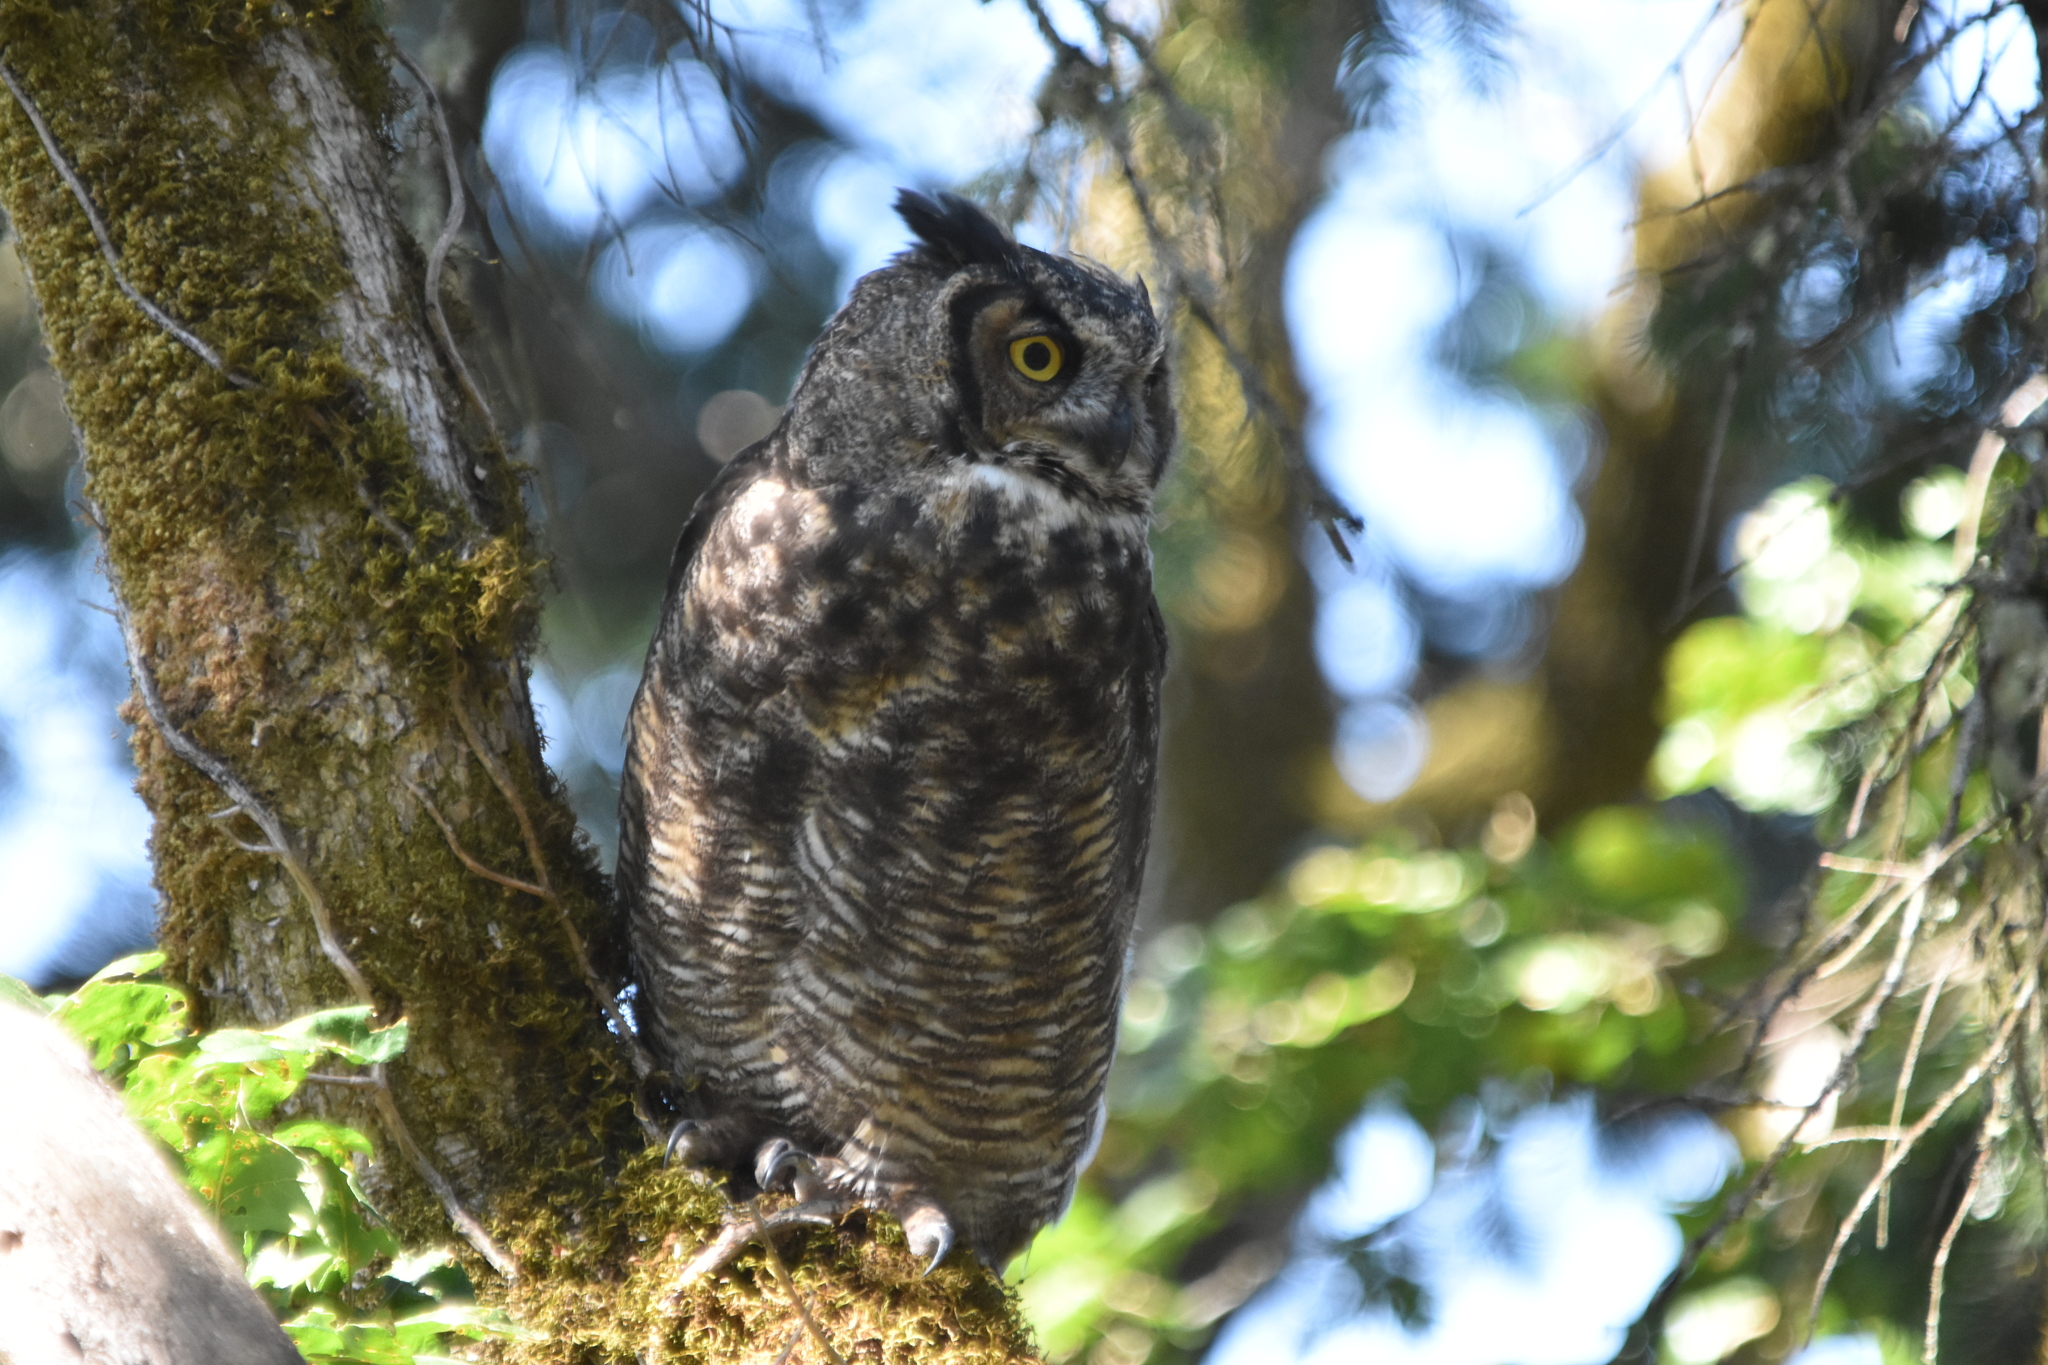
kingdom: Animalia
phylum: Chordata
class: Aves
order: Strigiformes
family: Strigidae
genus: Bubo
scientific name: Bubo virginianus
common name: Great horned owl
